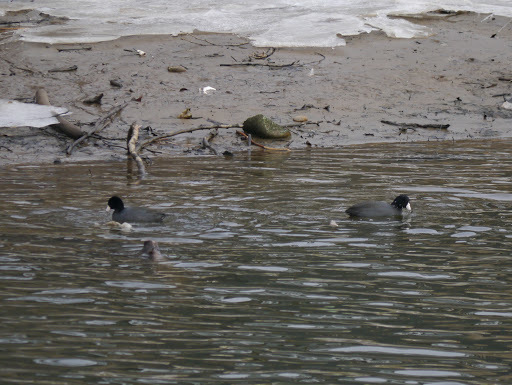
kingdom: Animalia
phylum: Chordata
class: Aves
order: Gruiformes
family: Rallidae
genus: Fulica
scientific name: Fulica americana
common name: American coot
